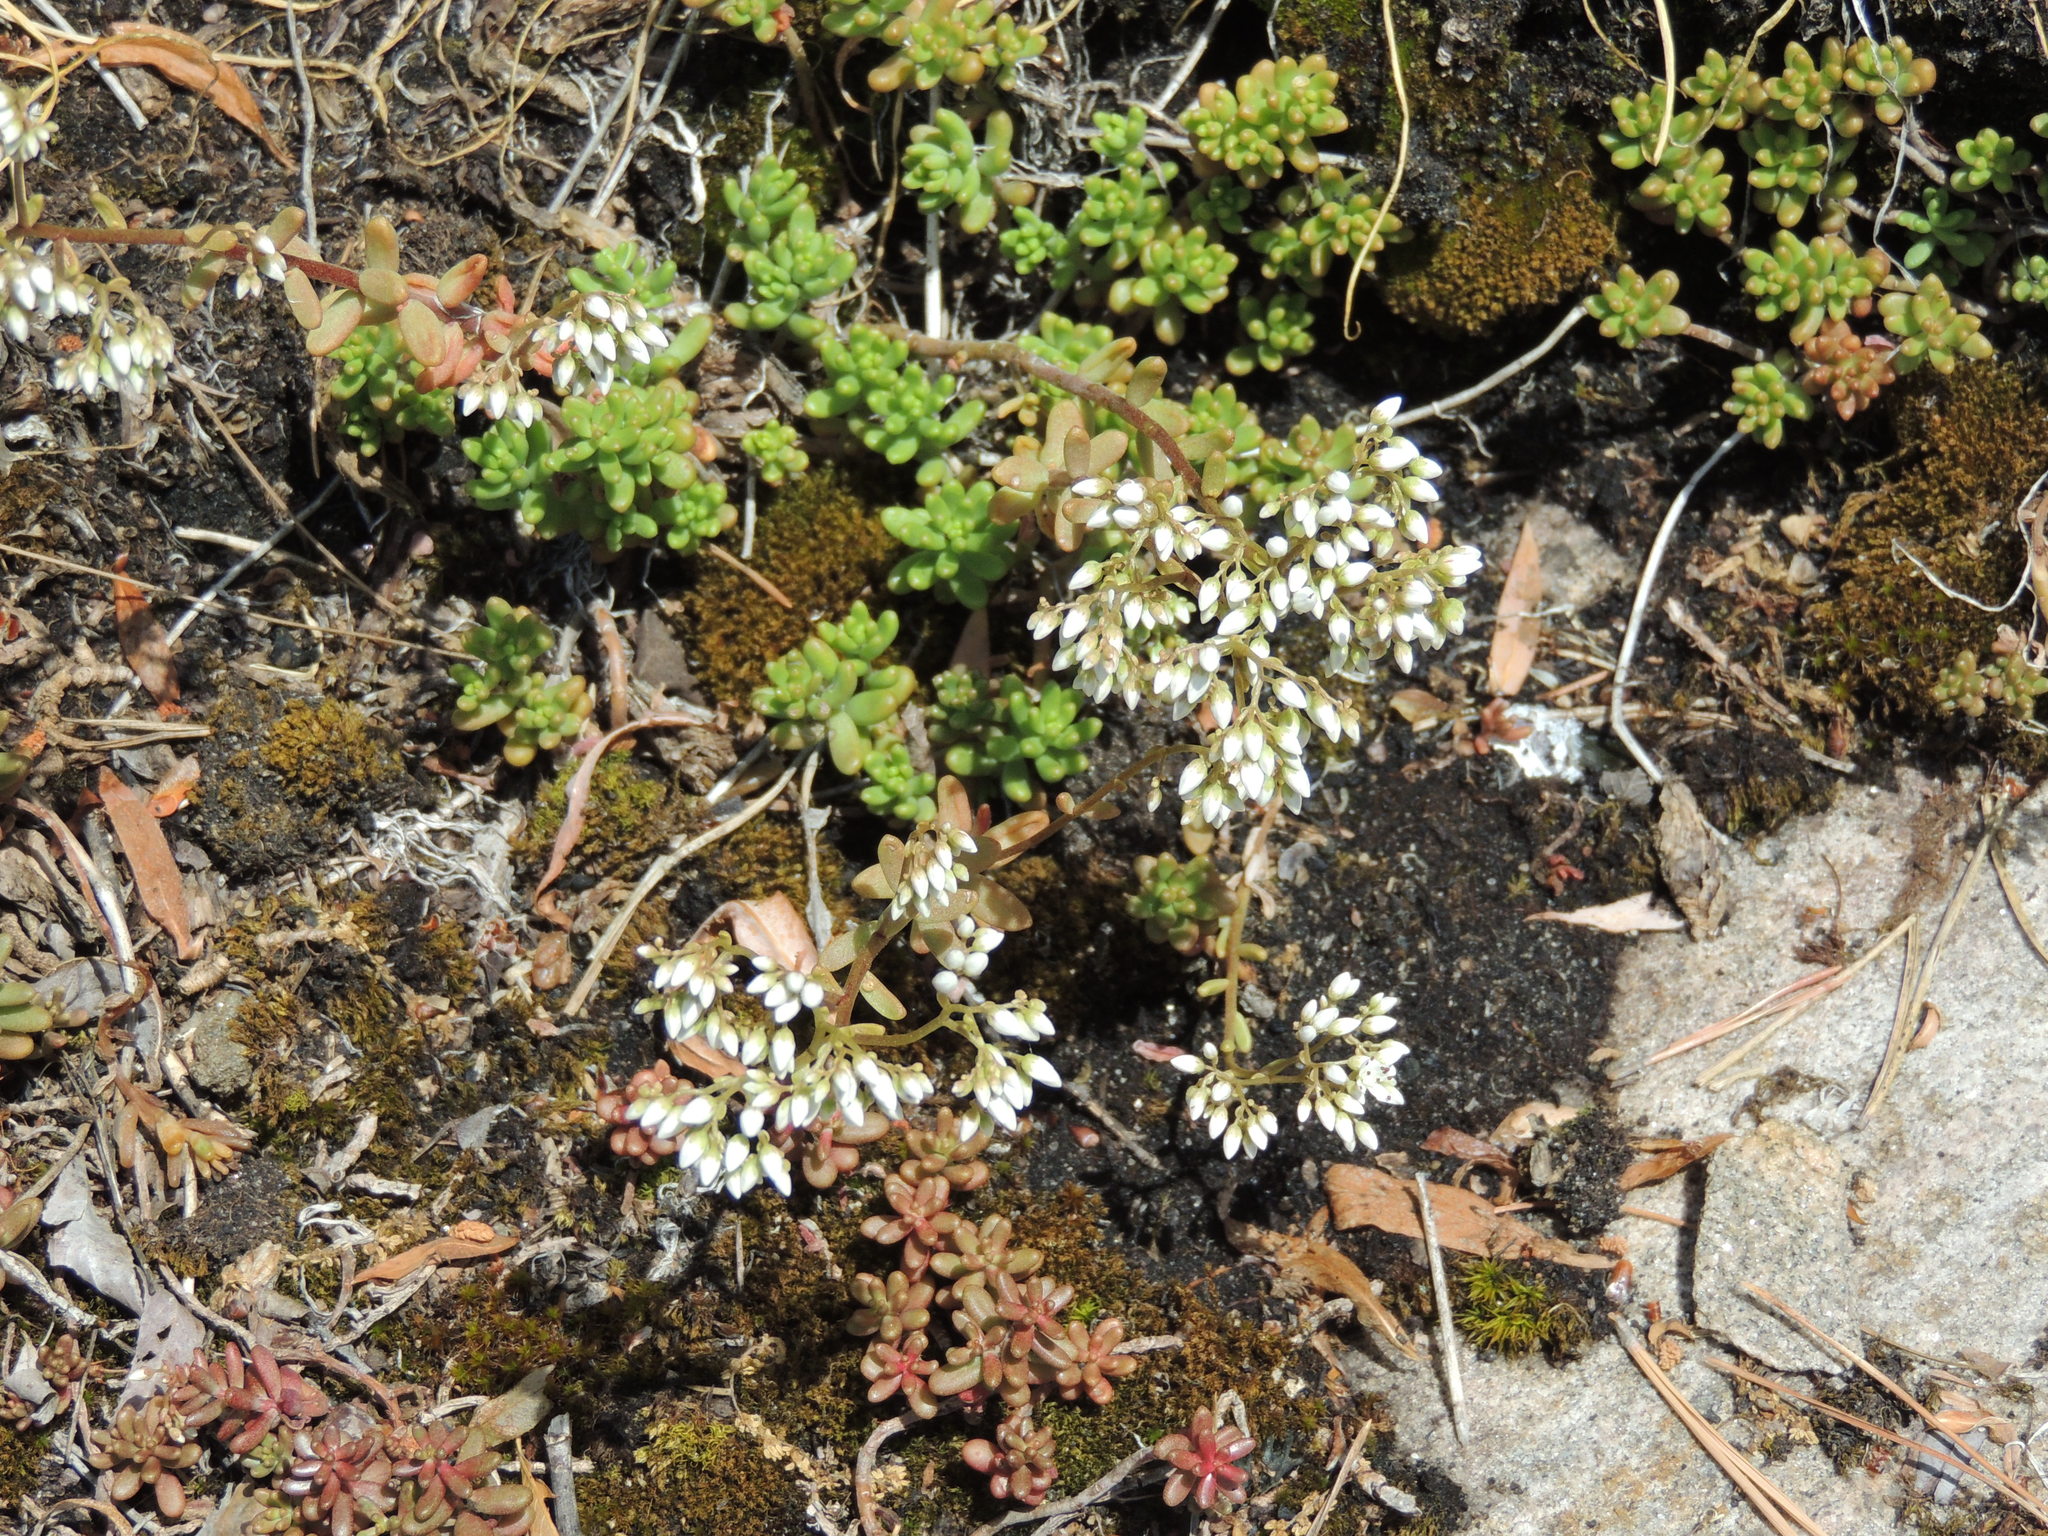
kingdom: Plantae
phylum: Tracheophyta
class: Magnoliopsida
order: Saxifragales
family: Crassulaceae
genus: Sedum
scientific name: Sedum album
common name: White stonecrop
